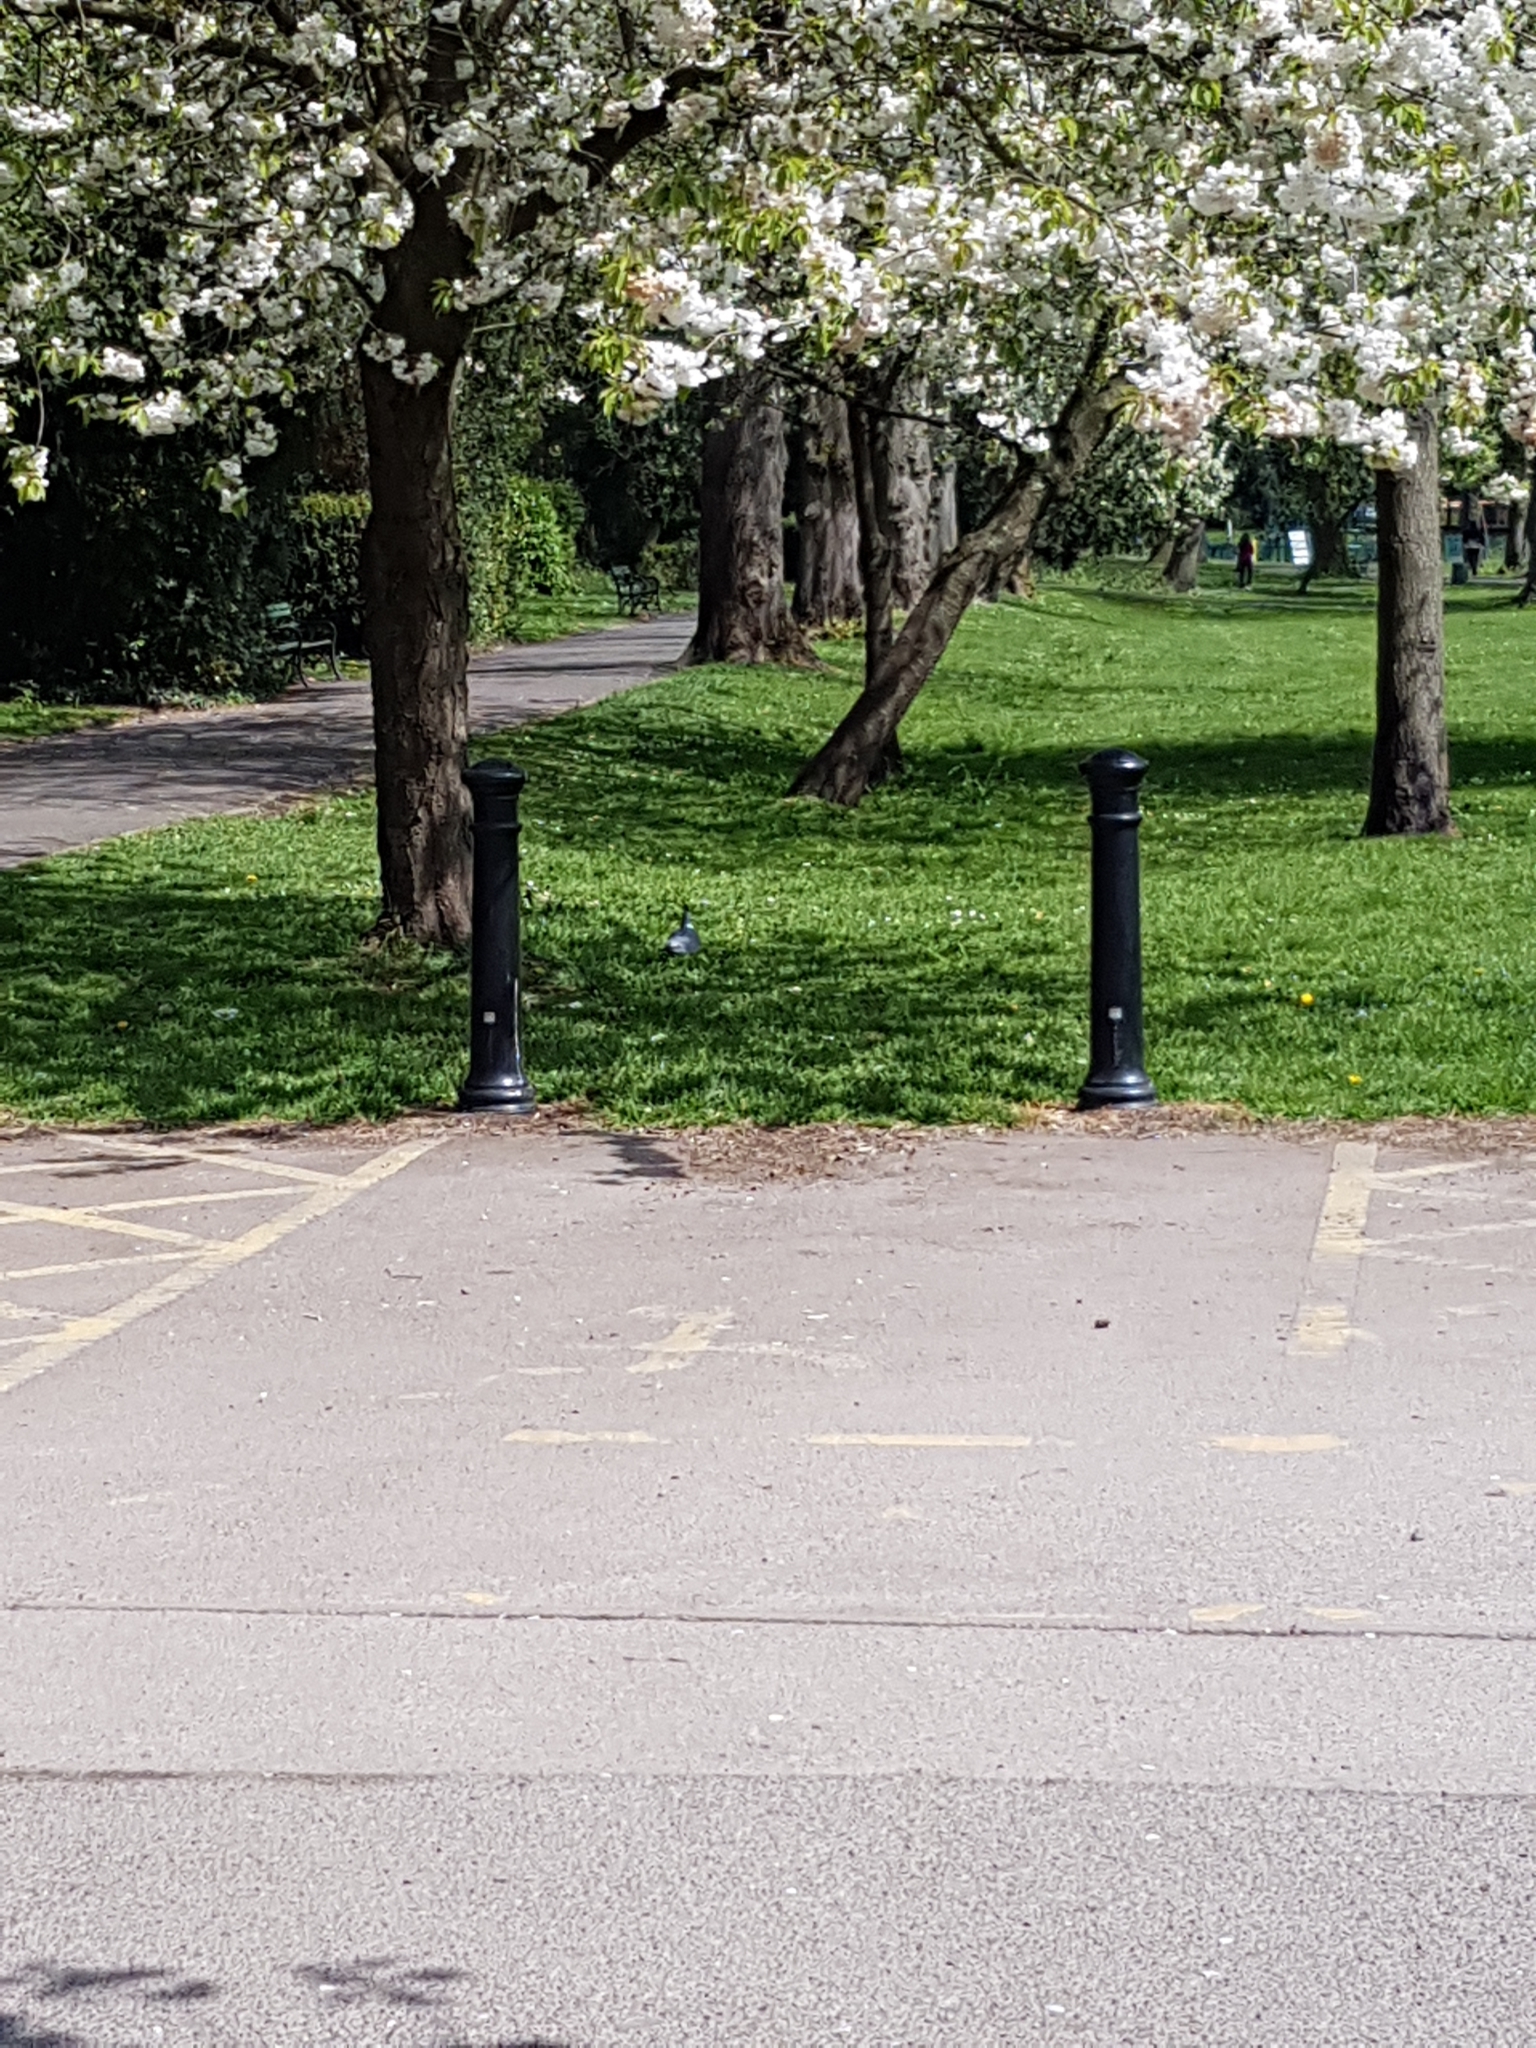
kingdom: Animalia
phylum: Chordata
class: Aves
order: Columbiformes
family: Columbidae
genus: Columba
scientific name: Columba palumbus
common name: Common wood pigeon
